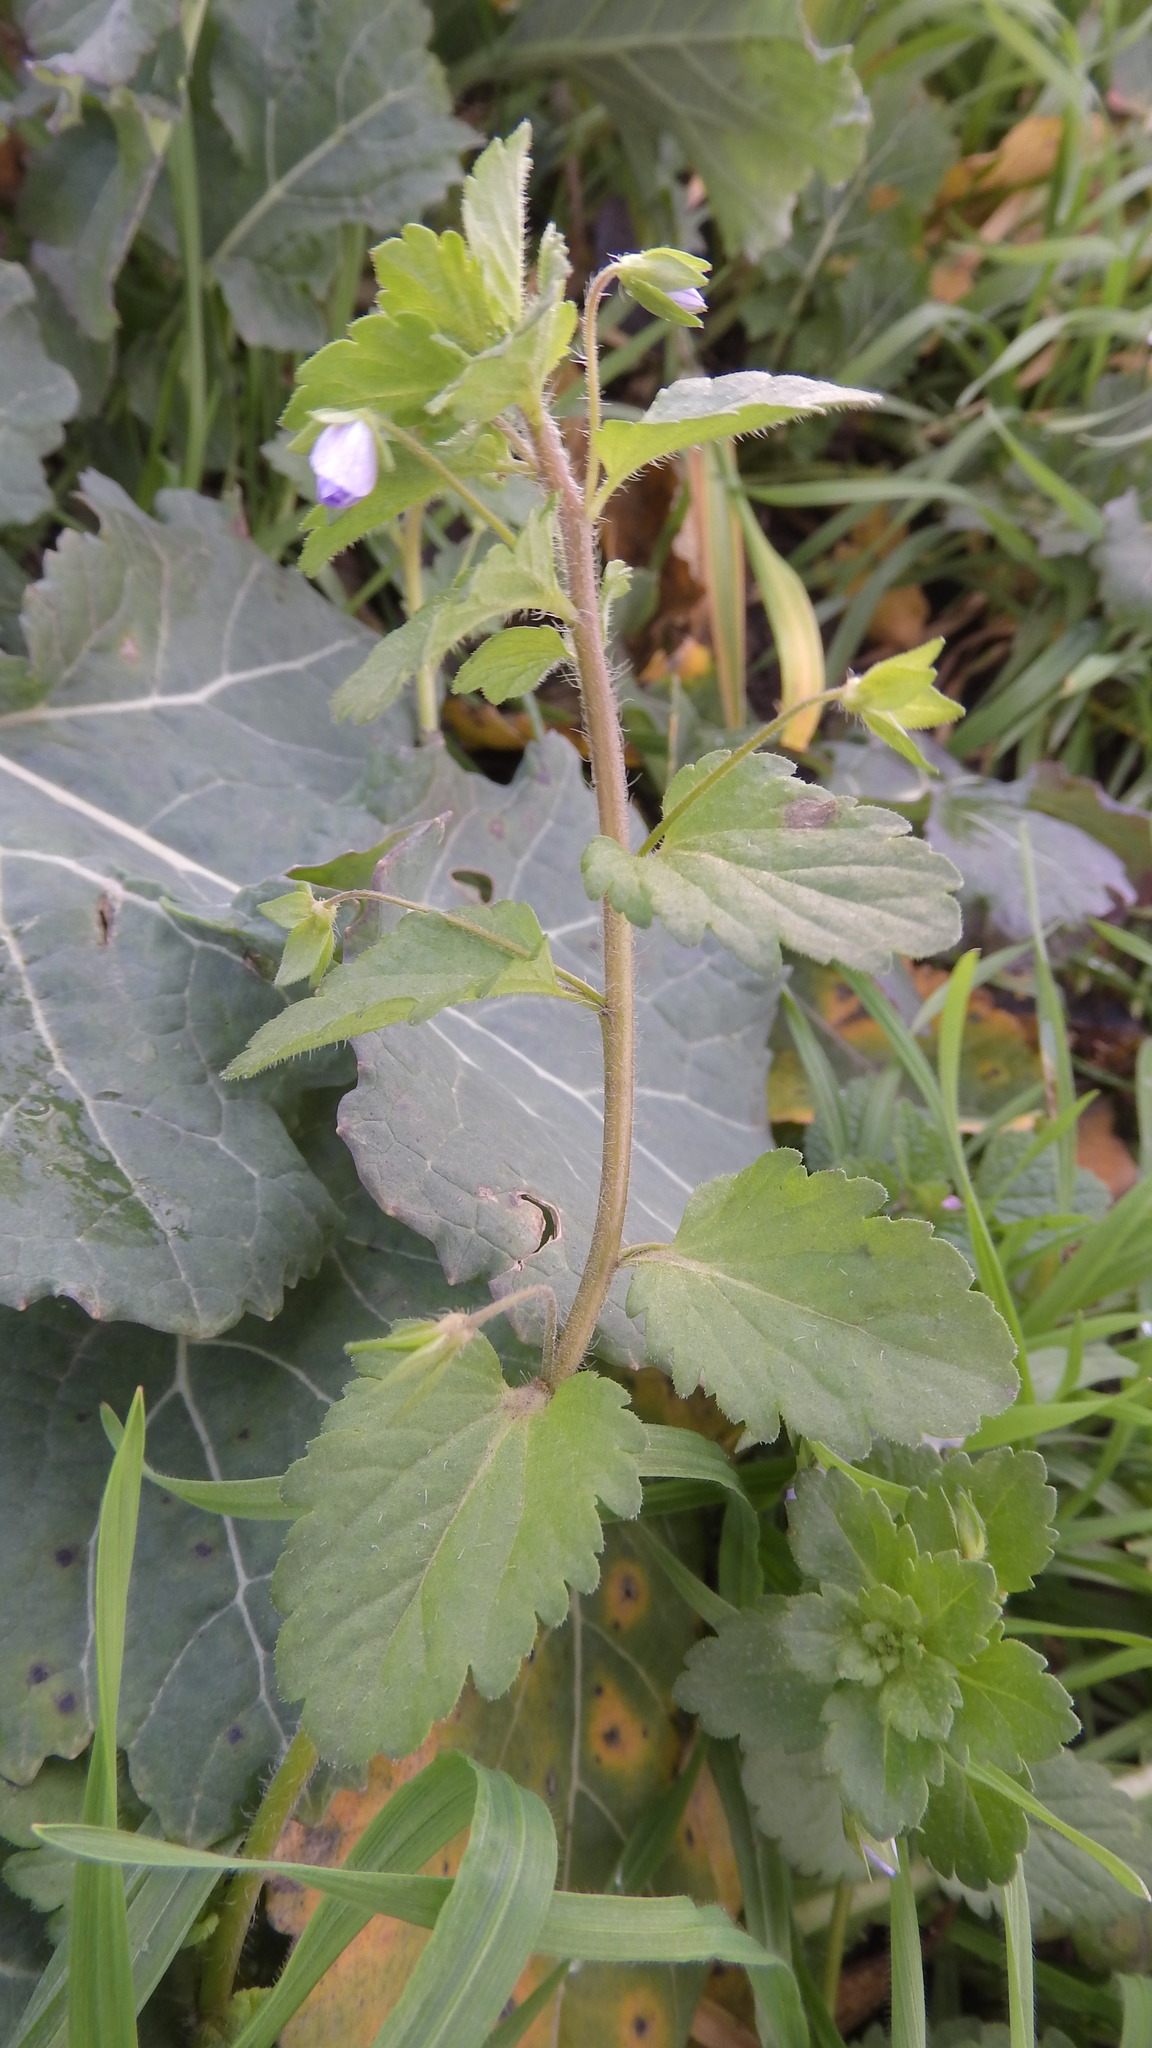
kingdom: Plantae
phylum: Tracheophyta
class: Magnoliopsida
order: Lamiales
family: Plantaginaceae
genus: Veronica
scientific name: Veronica persica
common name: Common field-speedwell
